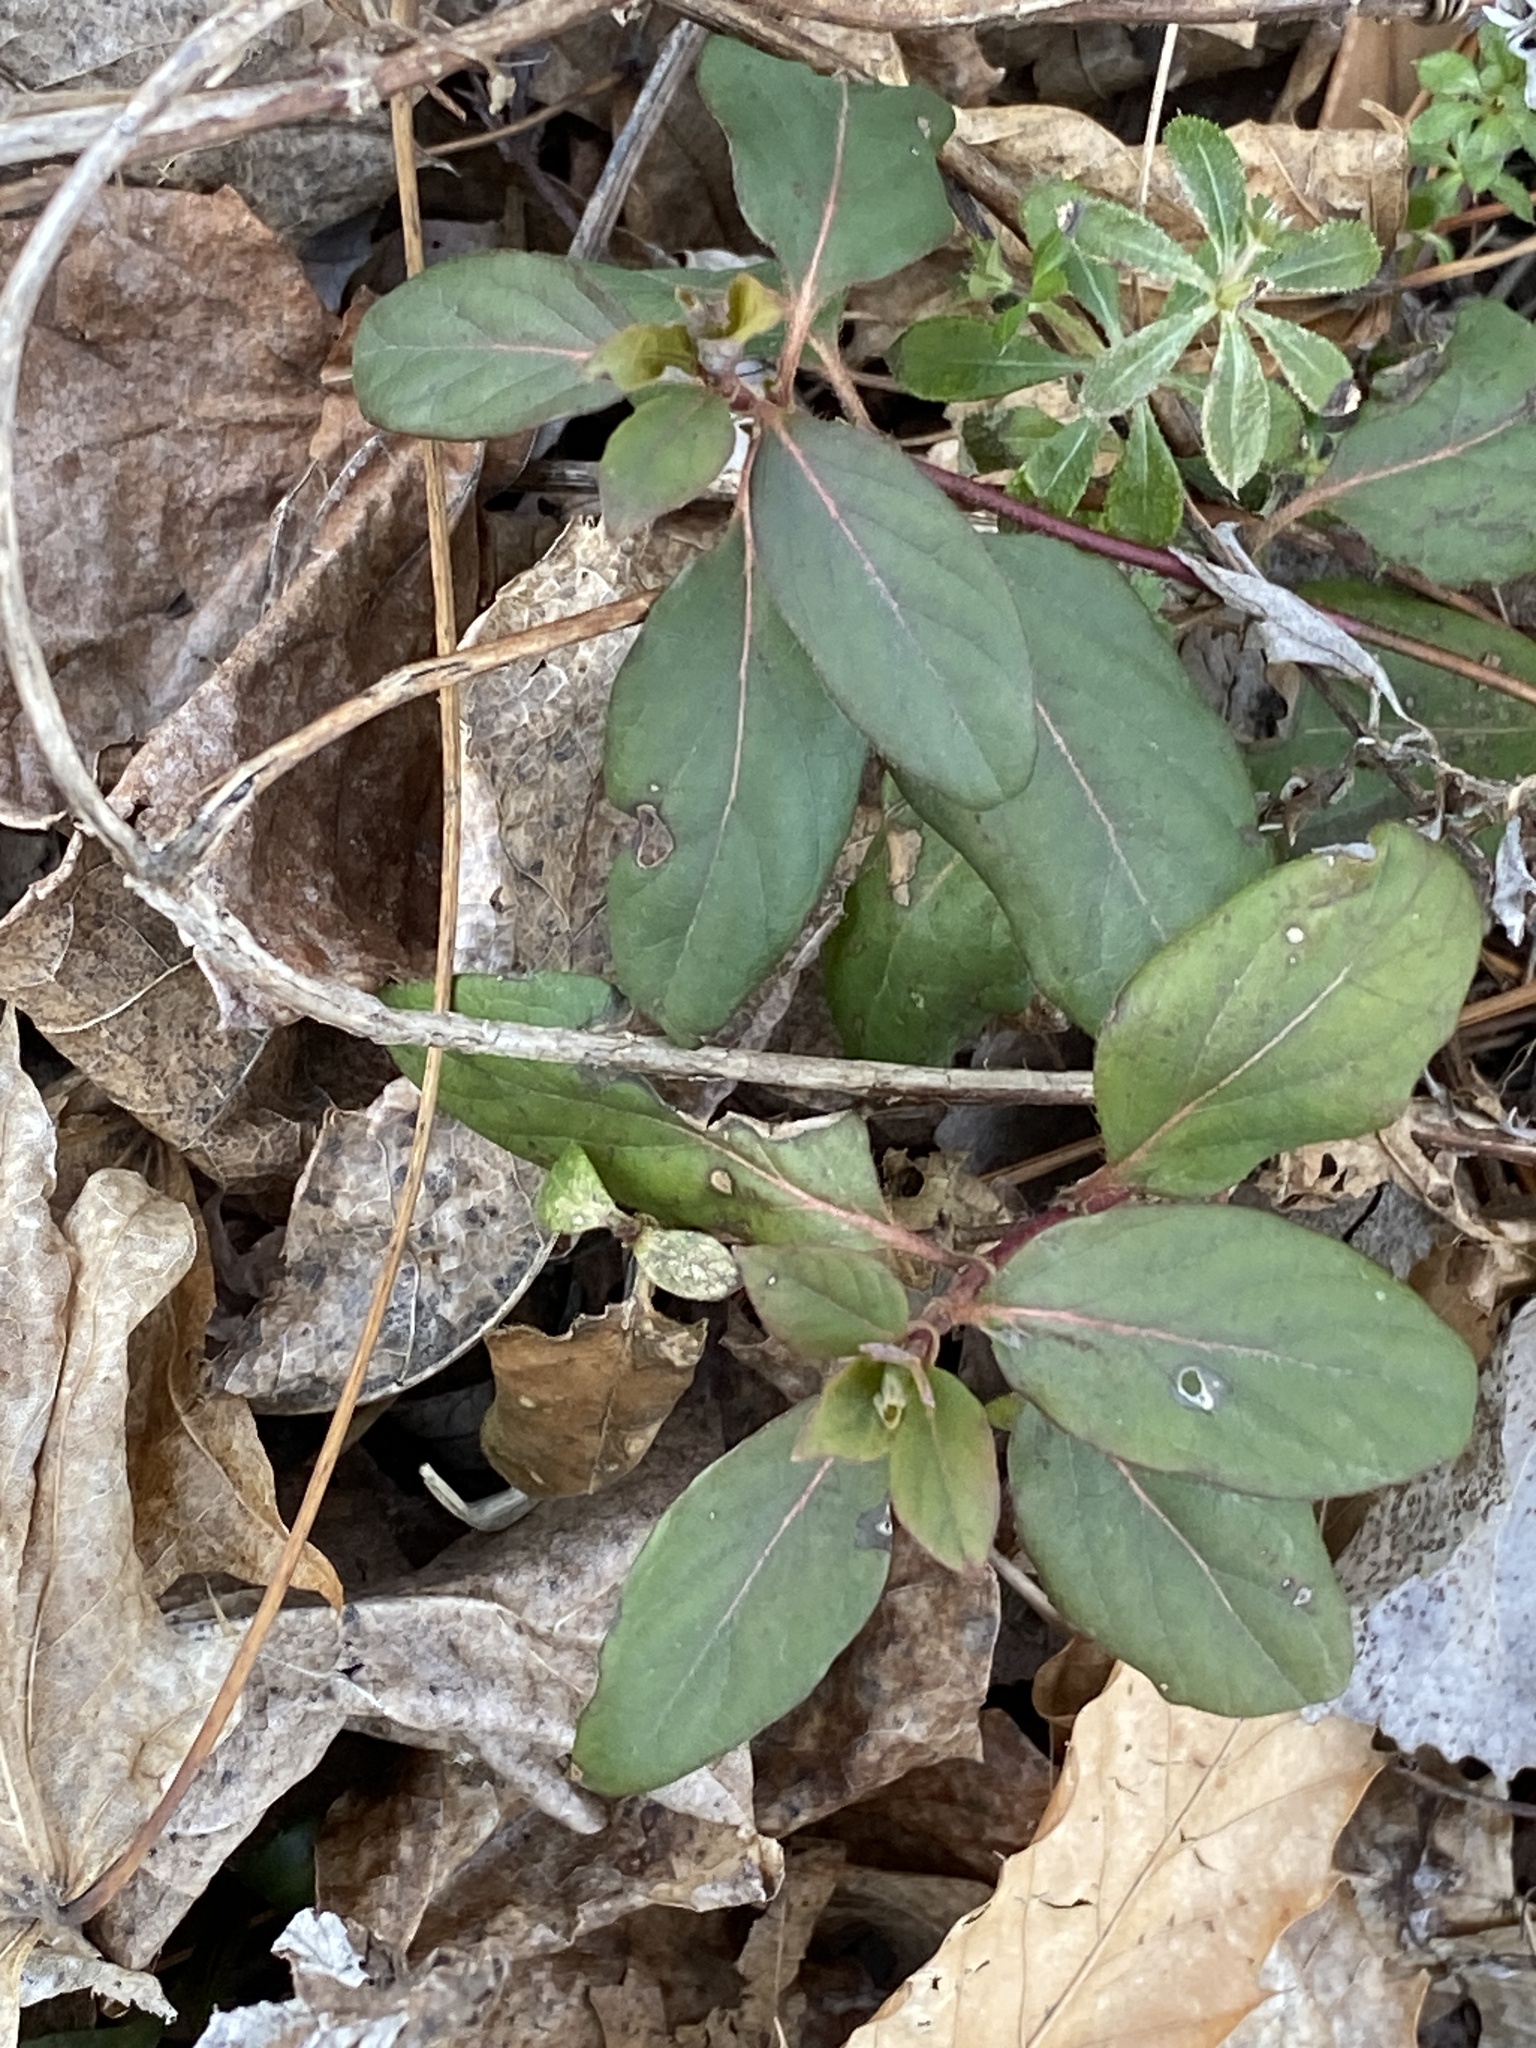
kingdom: Plantae
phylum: Tracheophyta
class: Magnoliopsida
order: Dipsacales
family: Caprifoliaceae
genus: Lonicera
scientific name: Lonicera japonica
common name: Japanese honeysuckle
